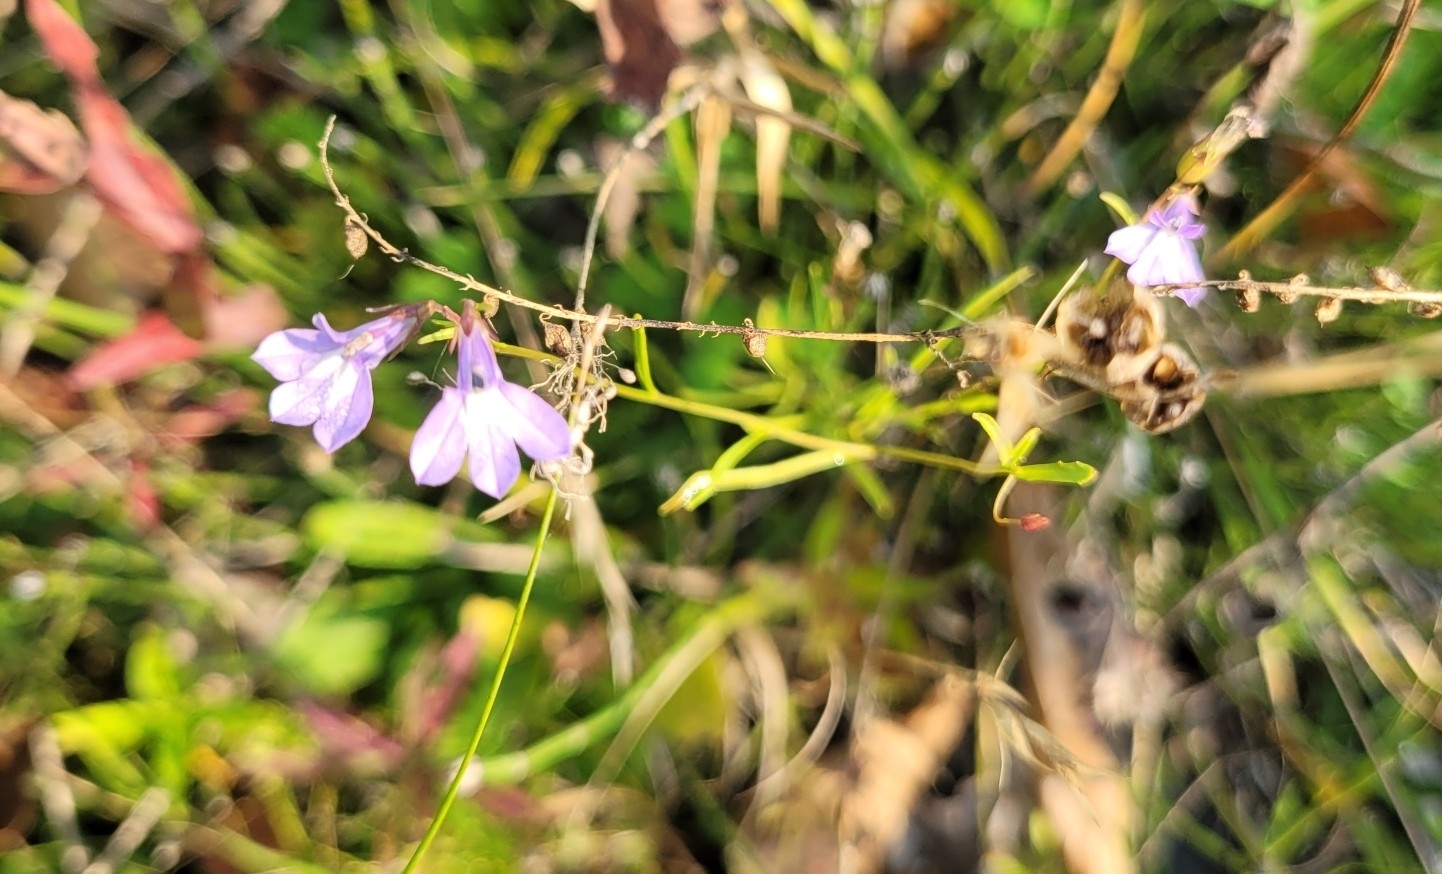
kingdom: Plantae
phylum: Tracheophyta
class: Magnoliopsida
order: Asterales
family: Campanulaceae
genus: Lobelia
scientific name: Lobelia kalmii
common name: Kalm's lobelia
